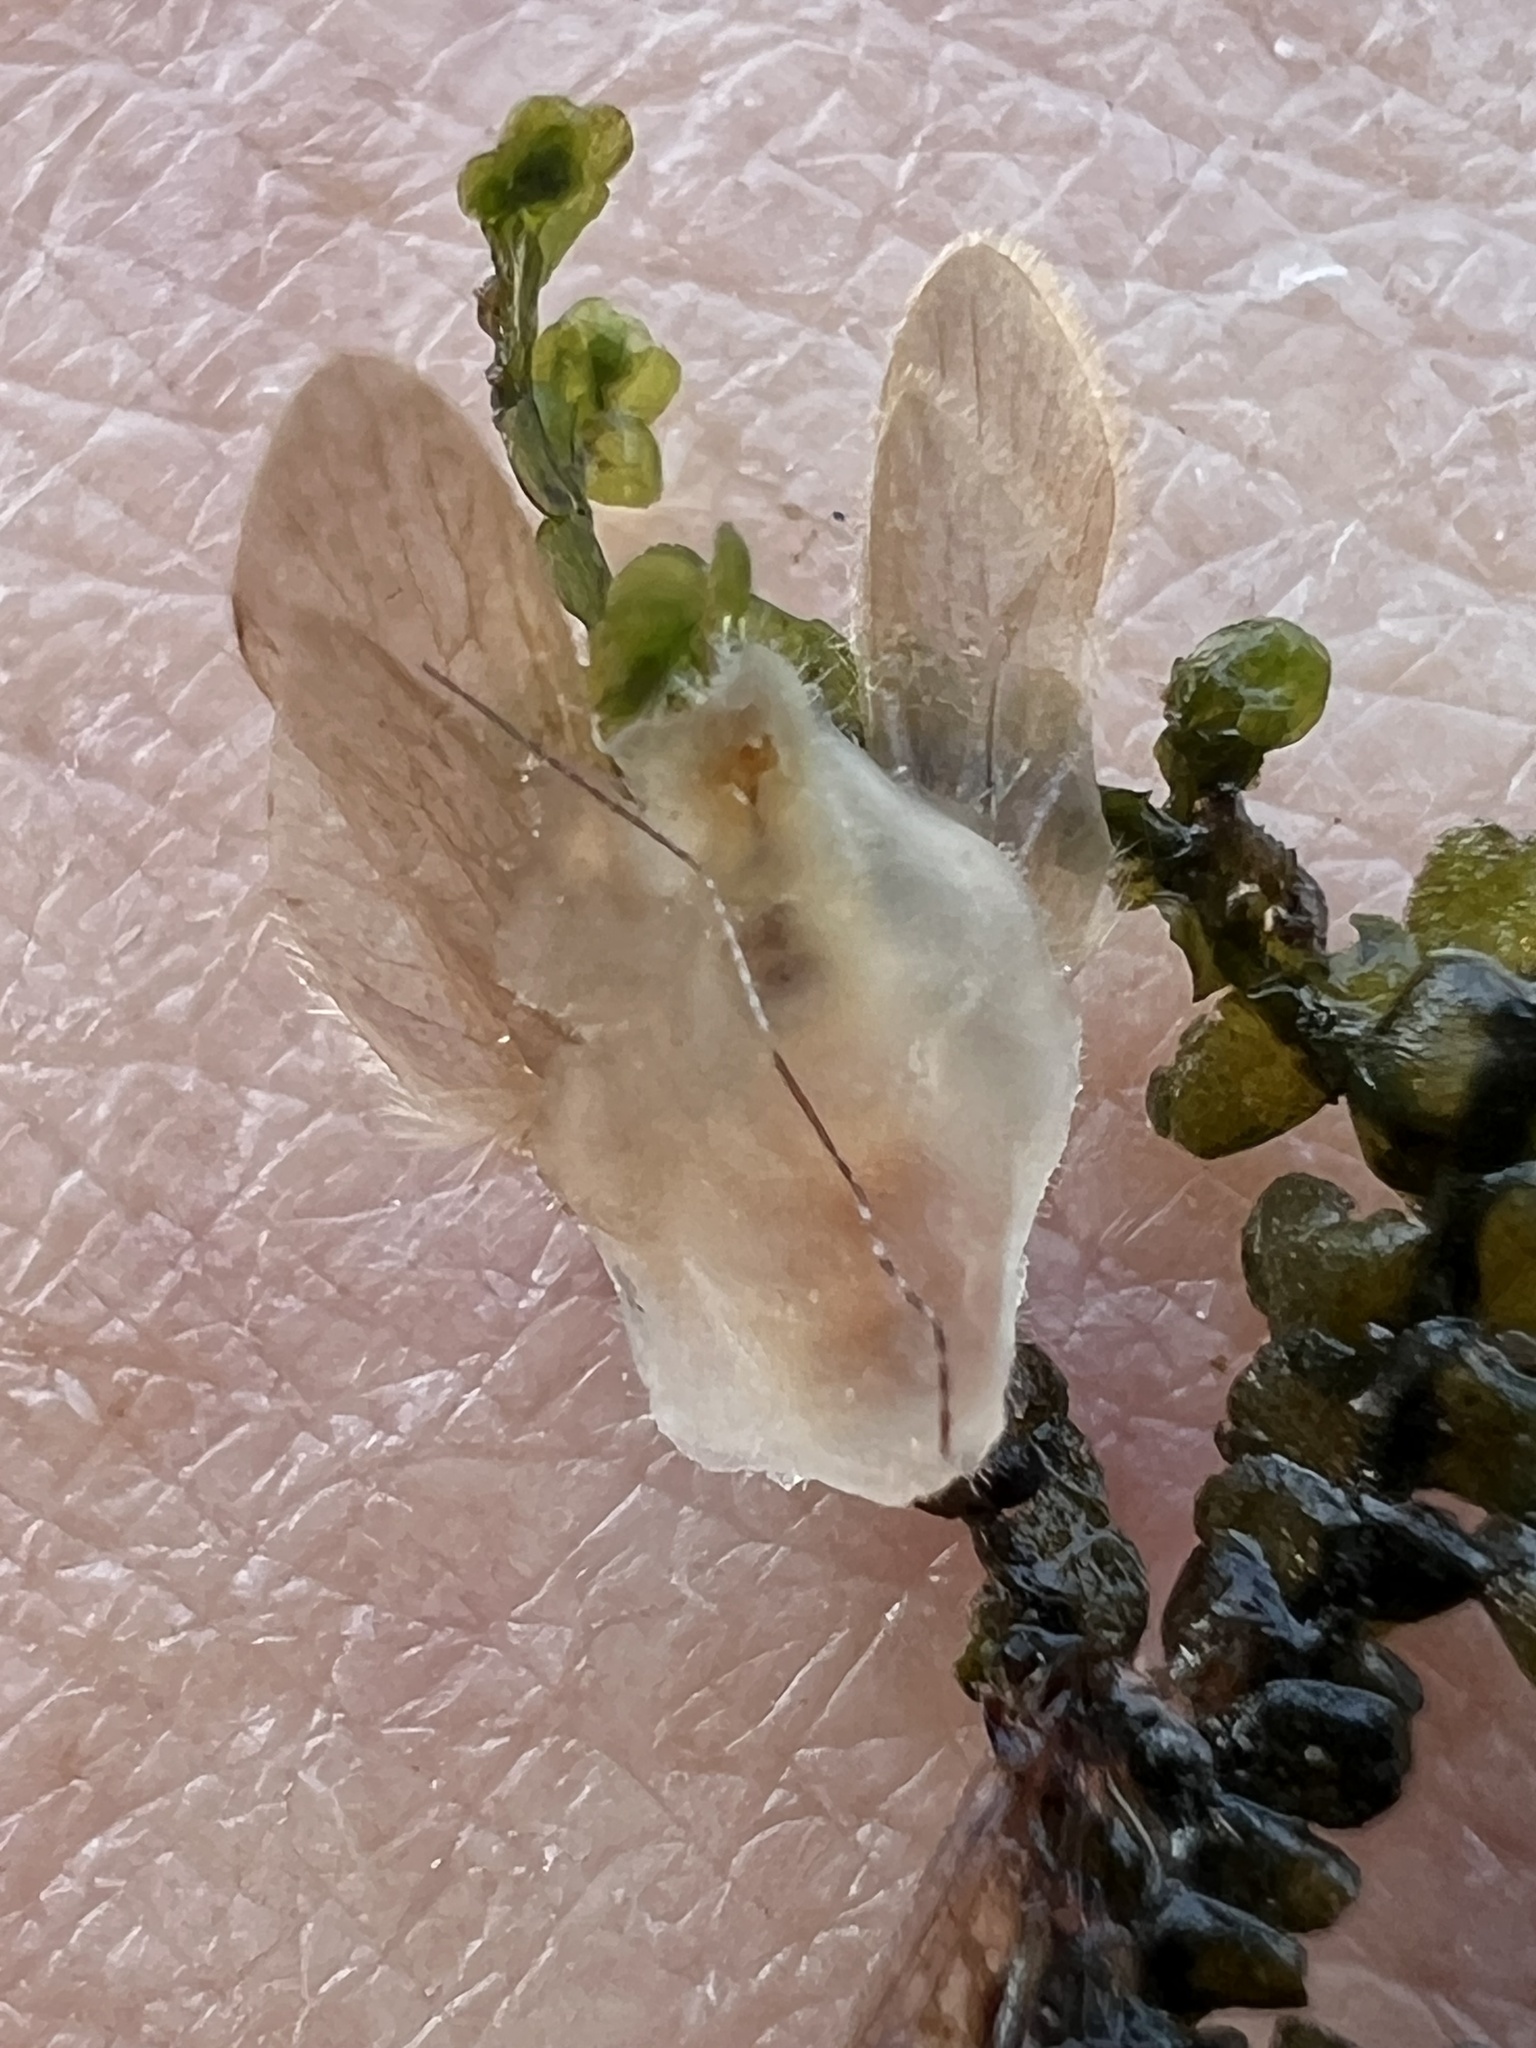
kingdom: Fungi
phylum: Entomophthoromycota
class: Entomophthoromycetes
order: Entomophthorales
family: Entomophthoraceae
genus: Erynia
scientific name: Erynia rhizospora
